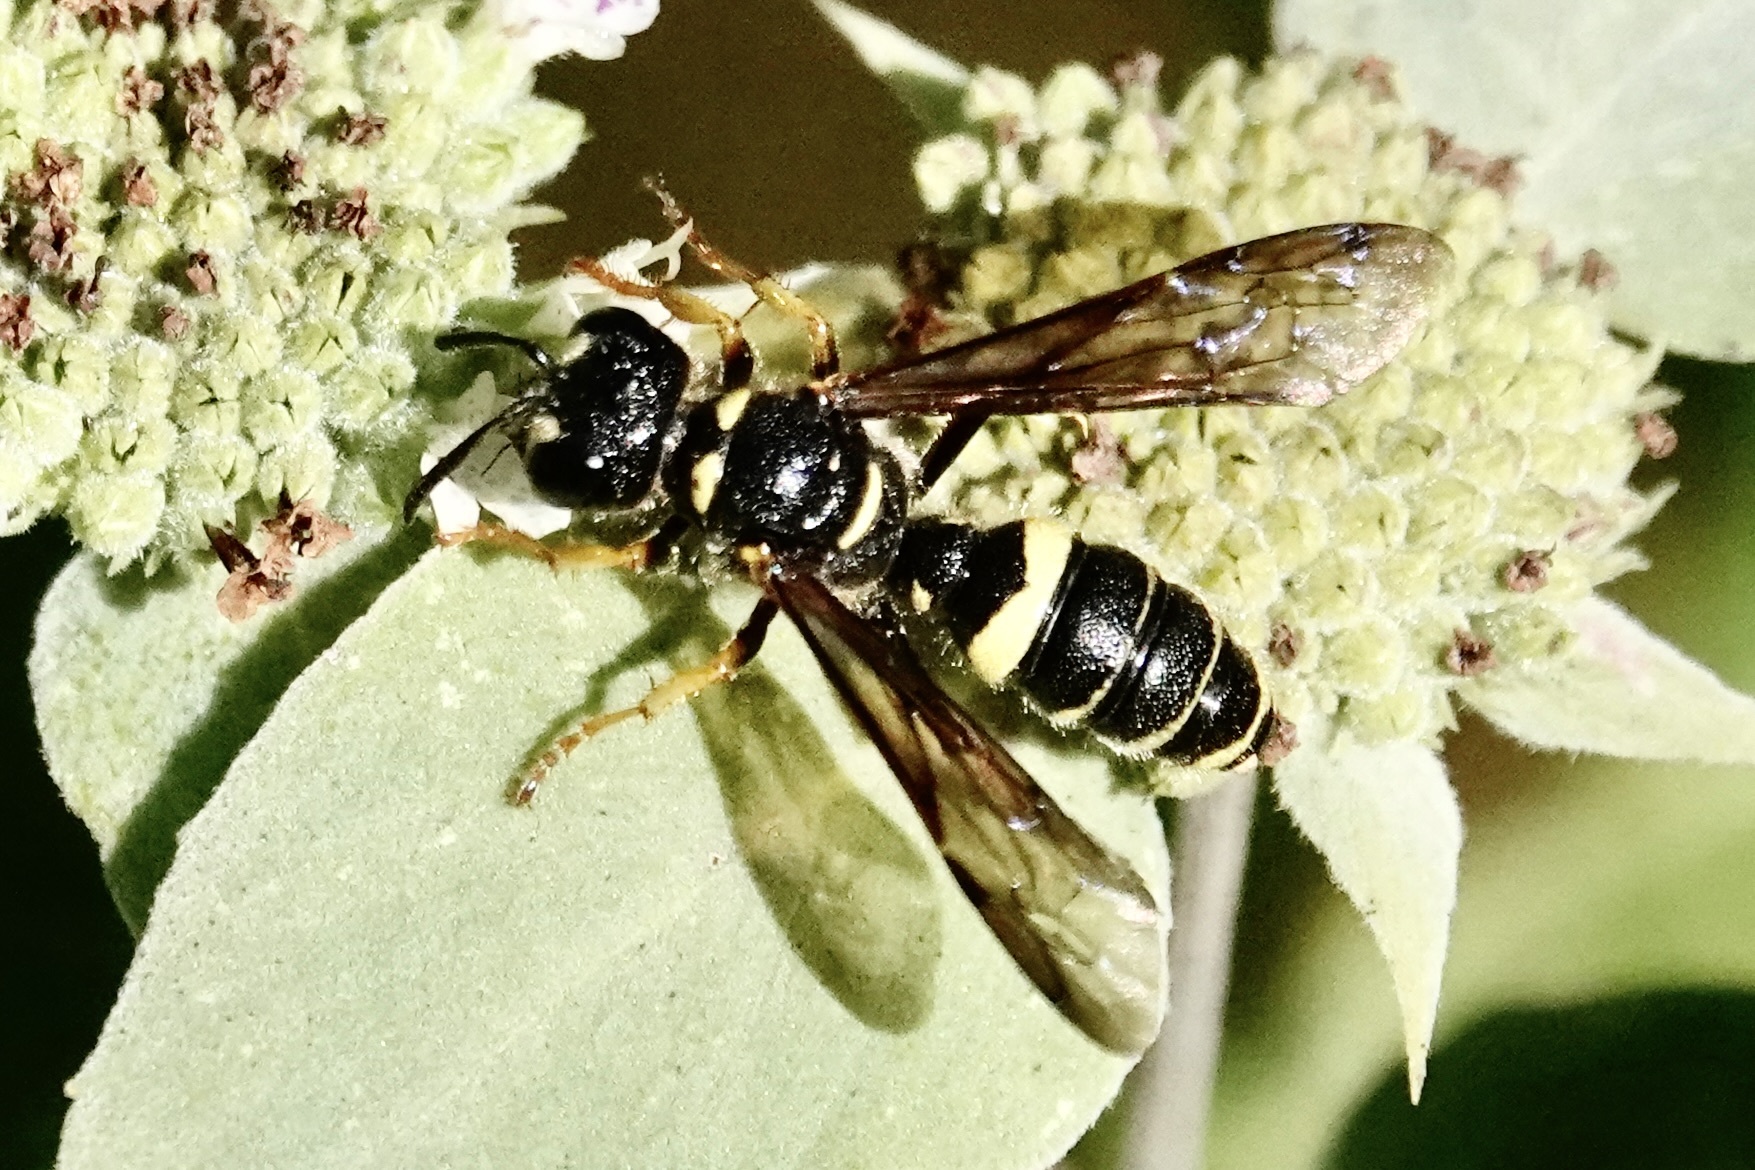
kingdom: Animalia
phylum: Arthropoda
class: Insecta
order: Hymenoptera
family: Crabronidae
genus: Cerceris
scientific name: Cerceris atramontensis
